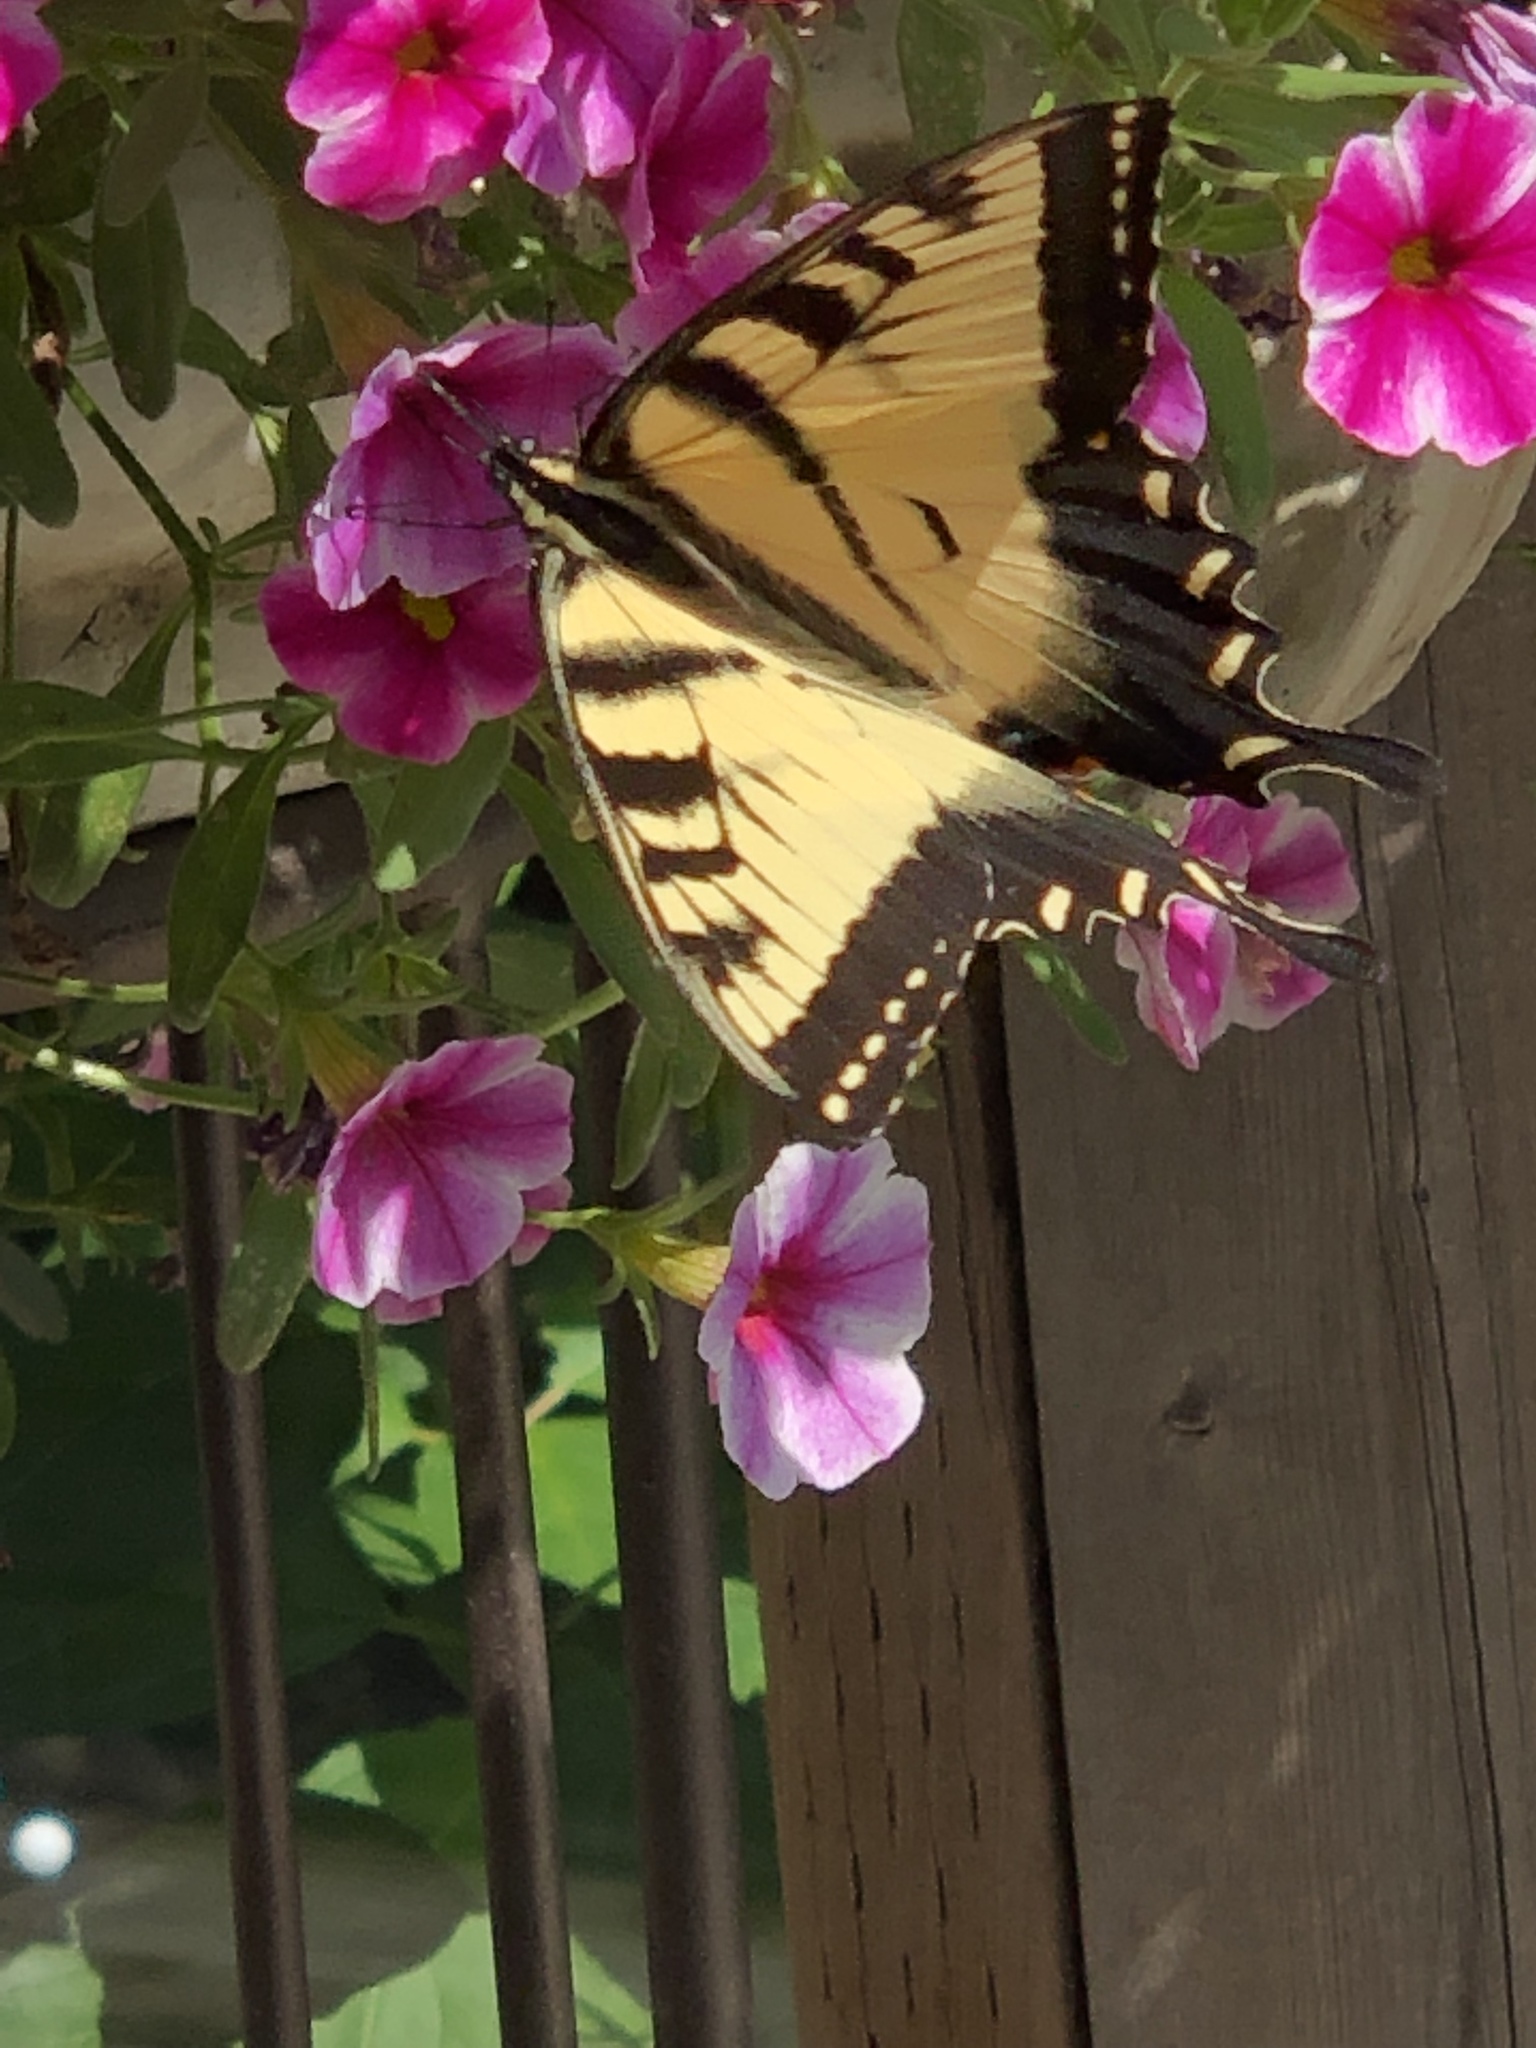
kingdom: Animalia
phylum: Arthropoda
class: Insecta
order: Lepidoptera
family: Papilionidae
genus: Papilio
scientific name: Papilio glaucus
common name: Tiger swallowtail
